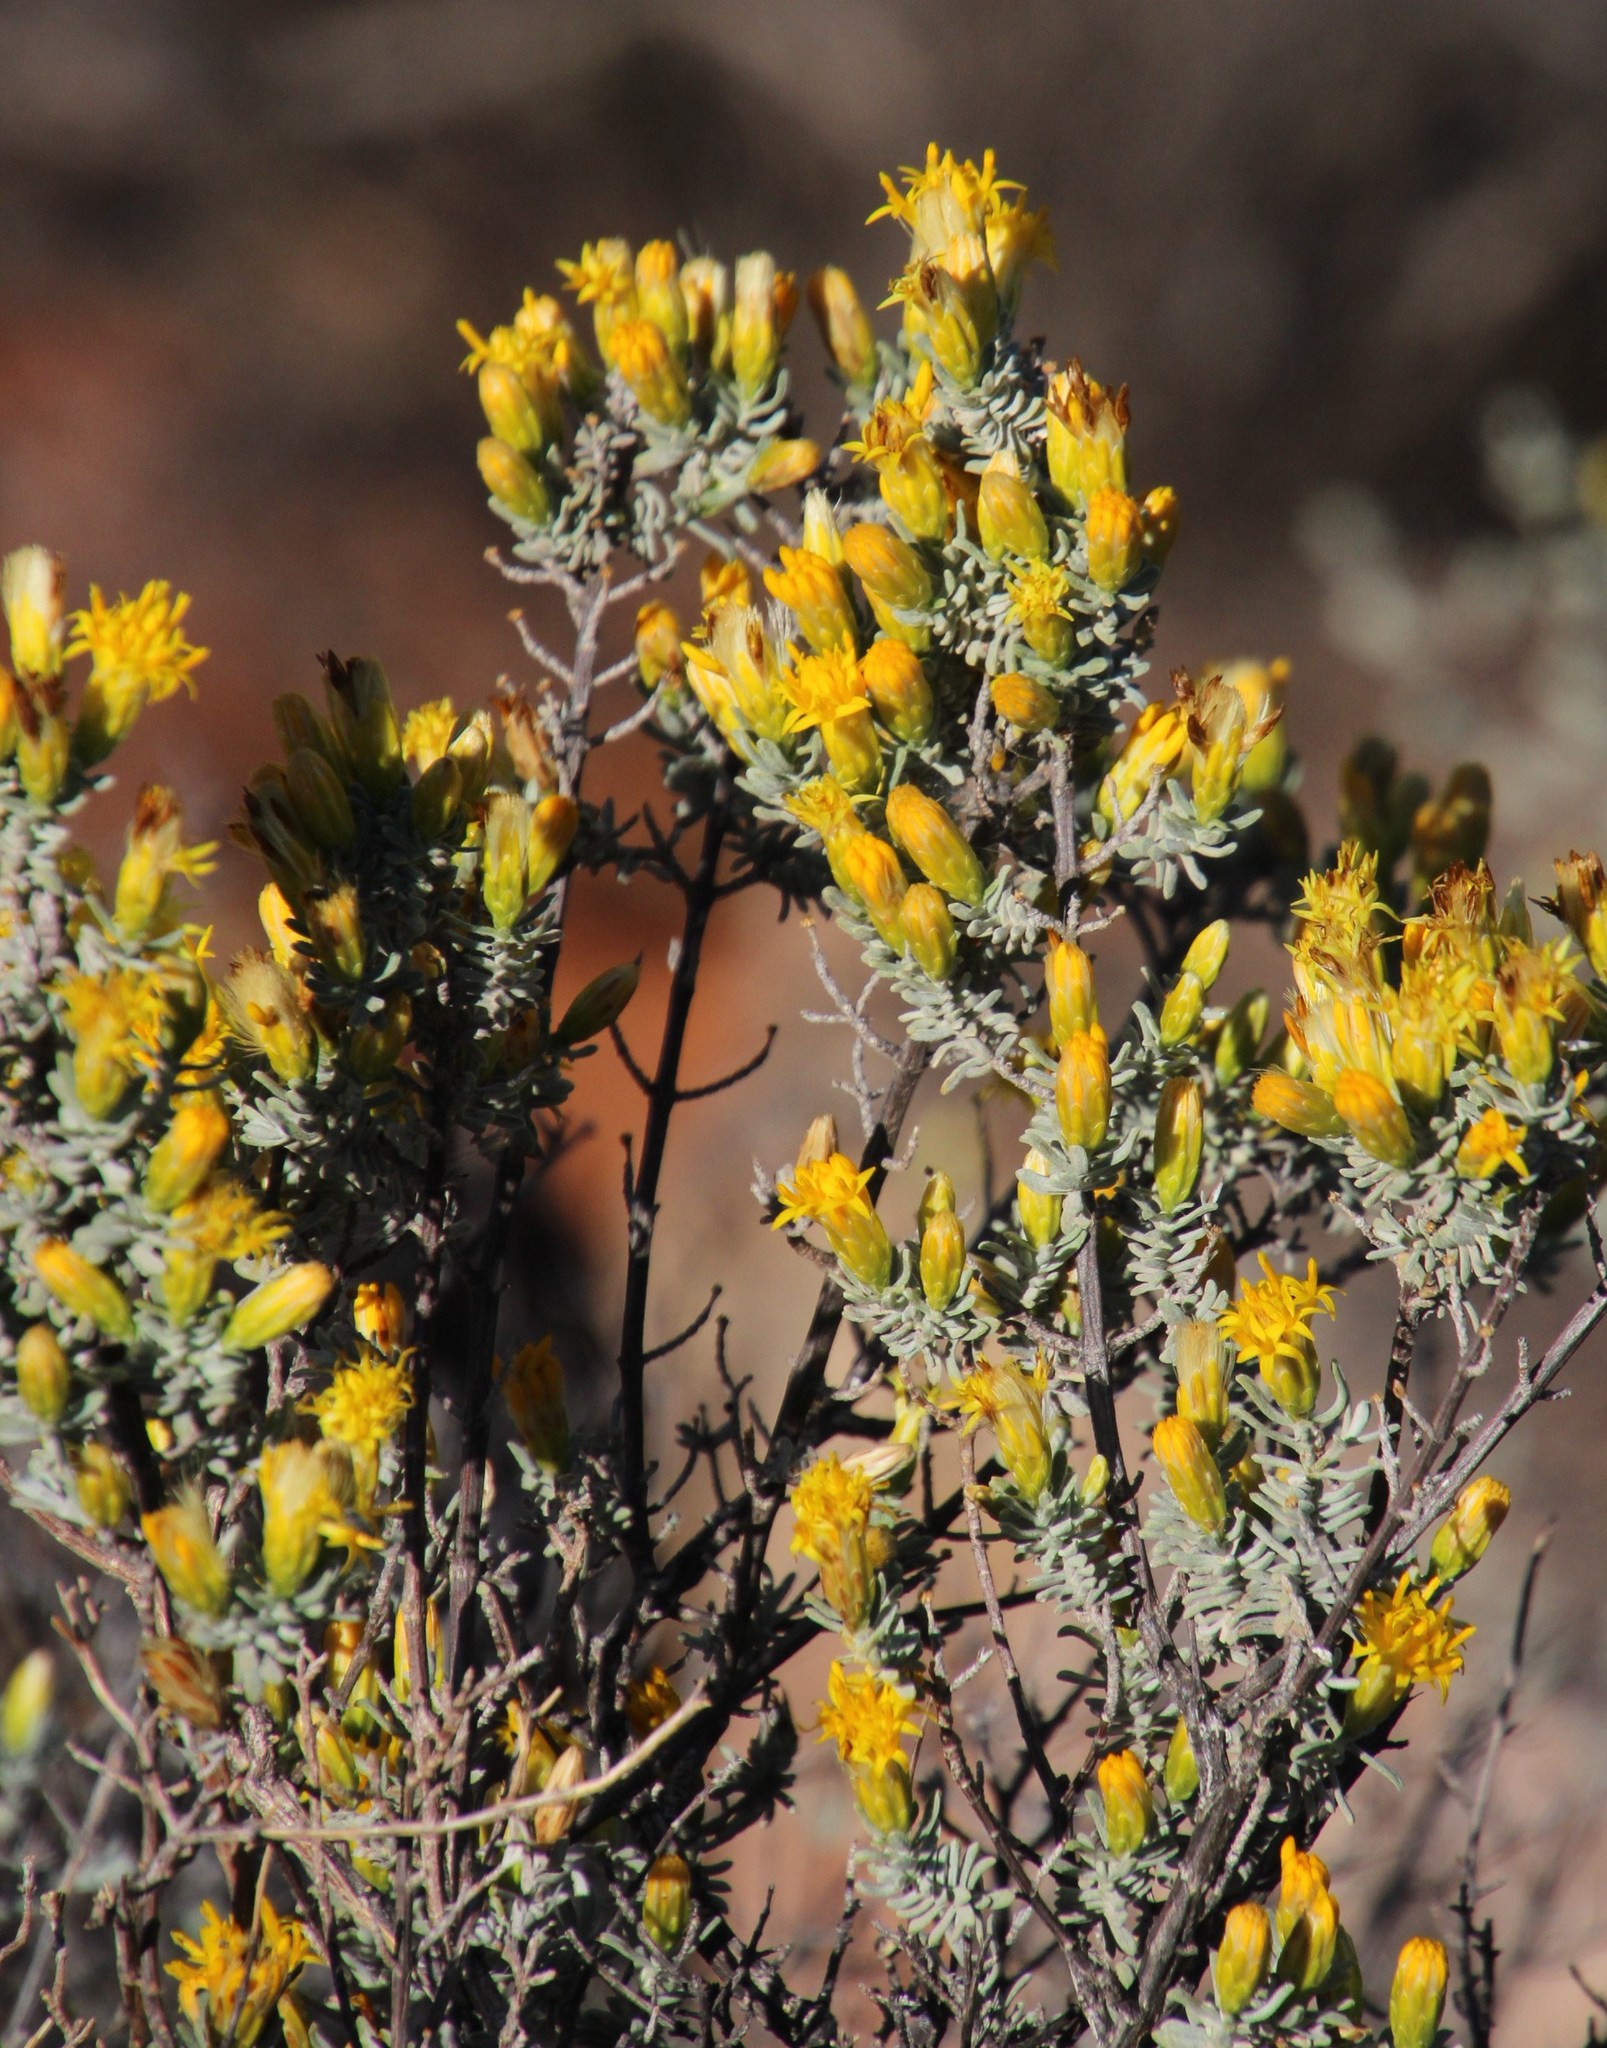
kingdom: Plantae
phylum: Tracheophyta
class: Magnoliopsida
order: Asterales
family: Asteraceae
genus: Pteronia
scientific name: Pteronia incana
